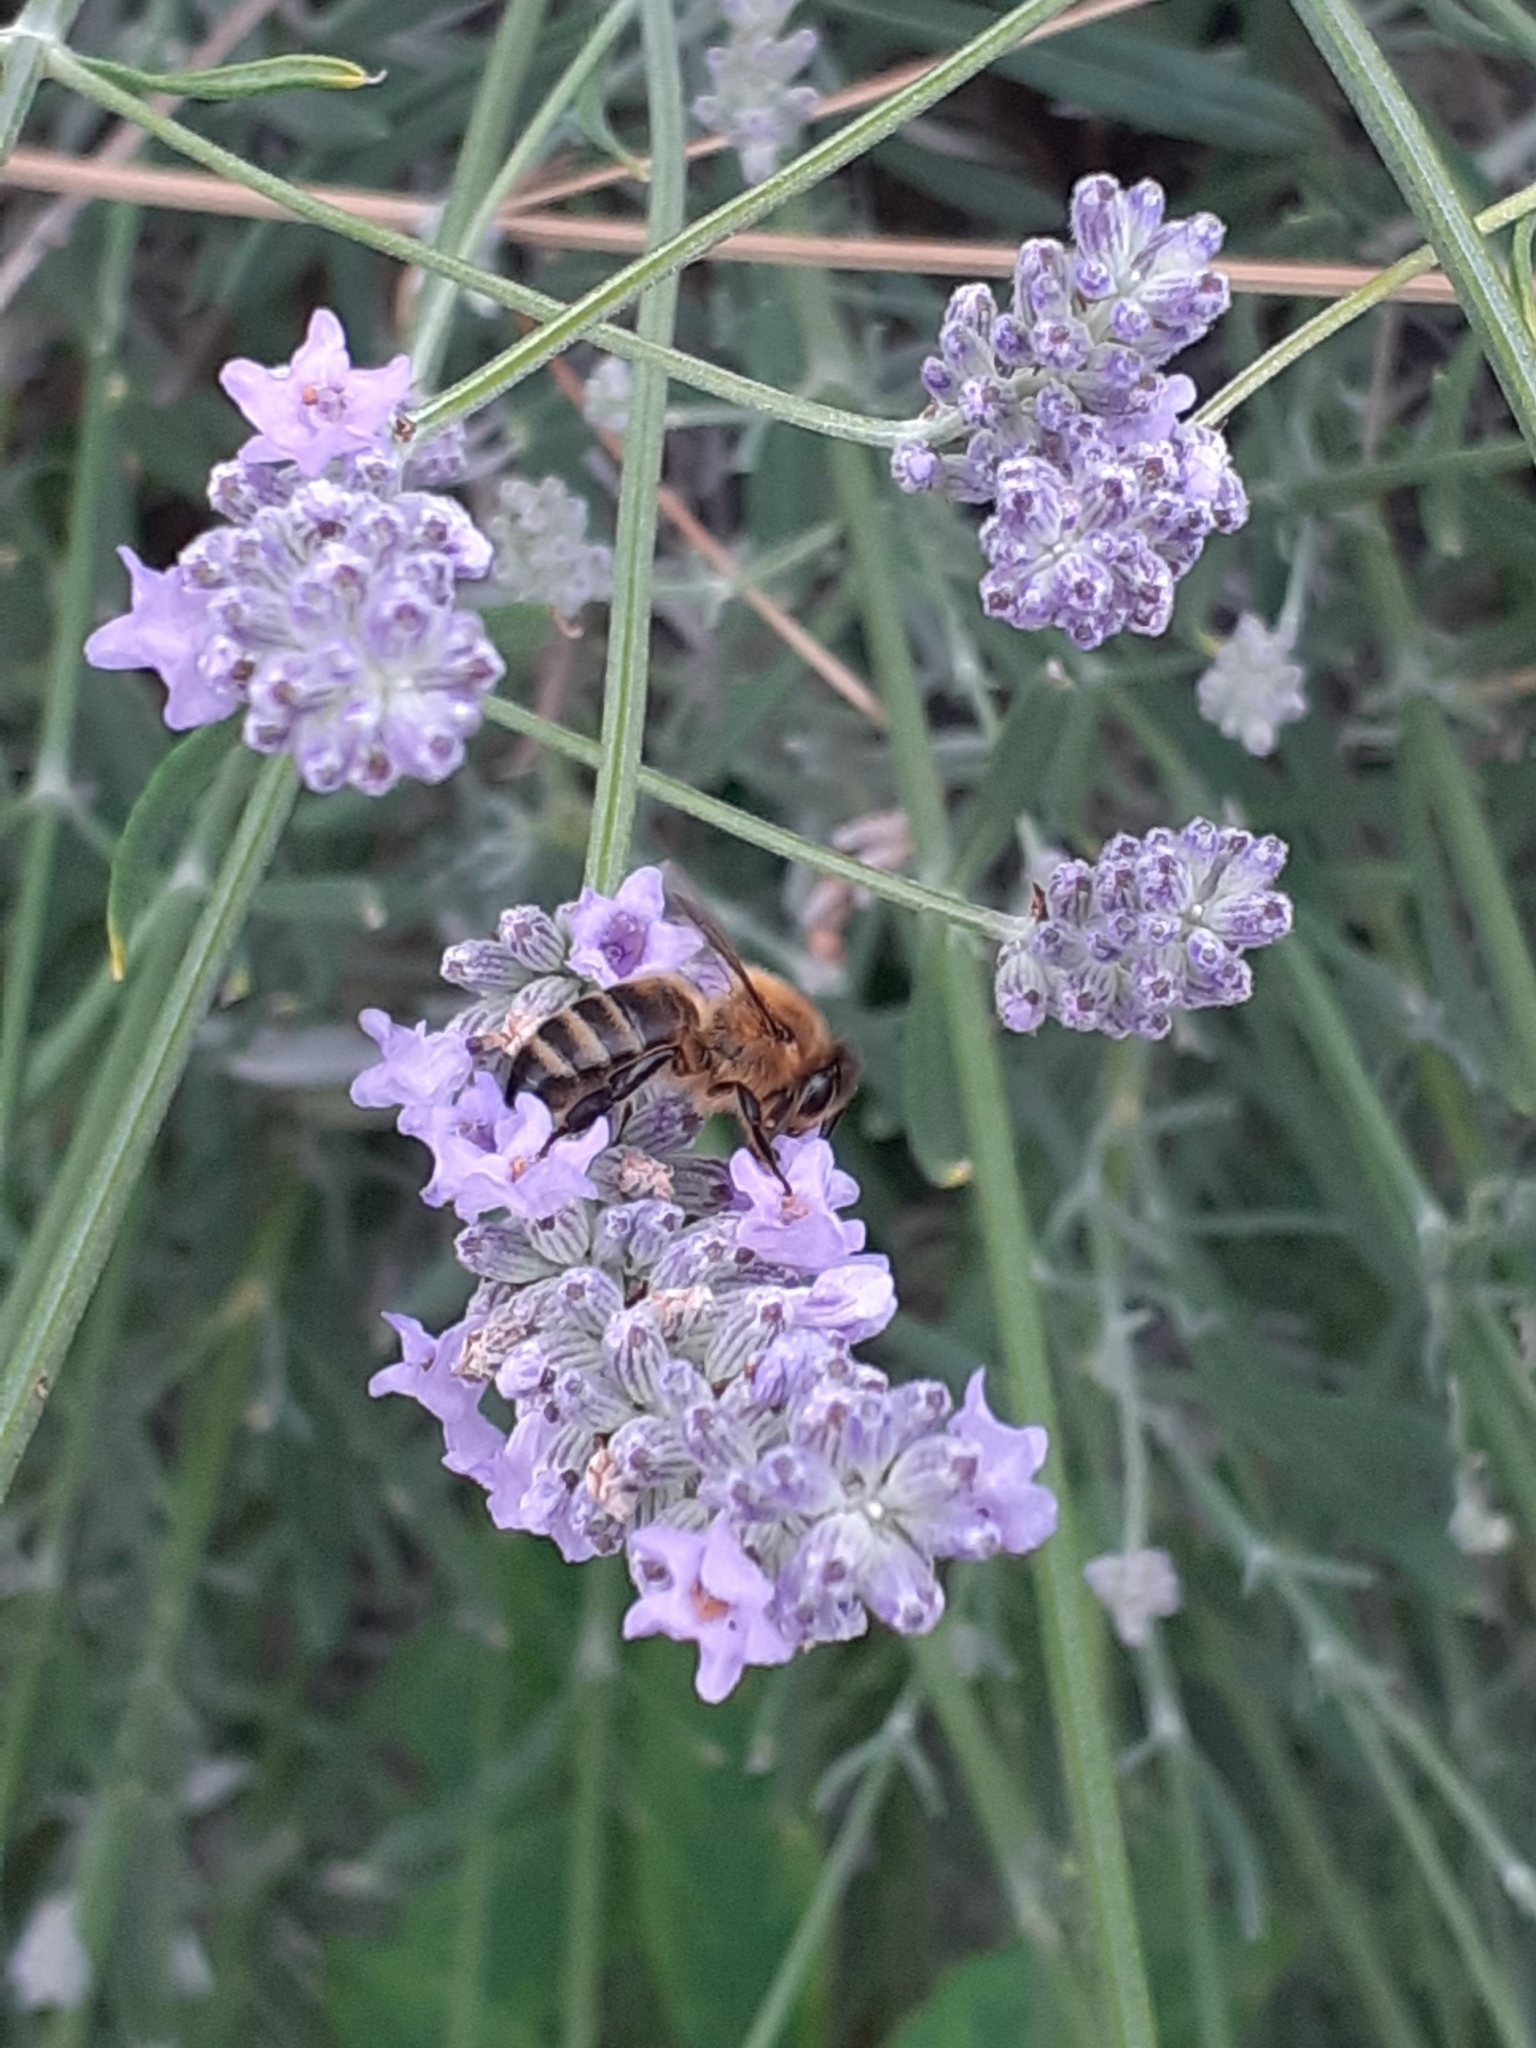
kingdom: Animalia
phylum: Arthropoda
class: Insecta
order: Hymenoptera
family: Apidae
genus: Apis
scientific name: Apis mellifera
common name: Honey bee
